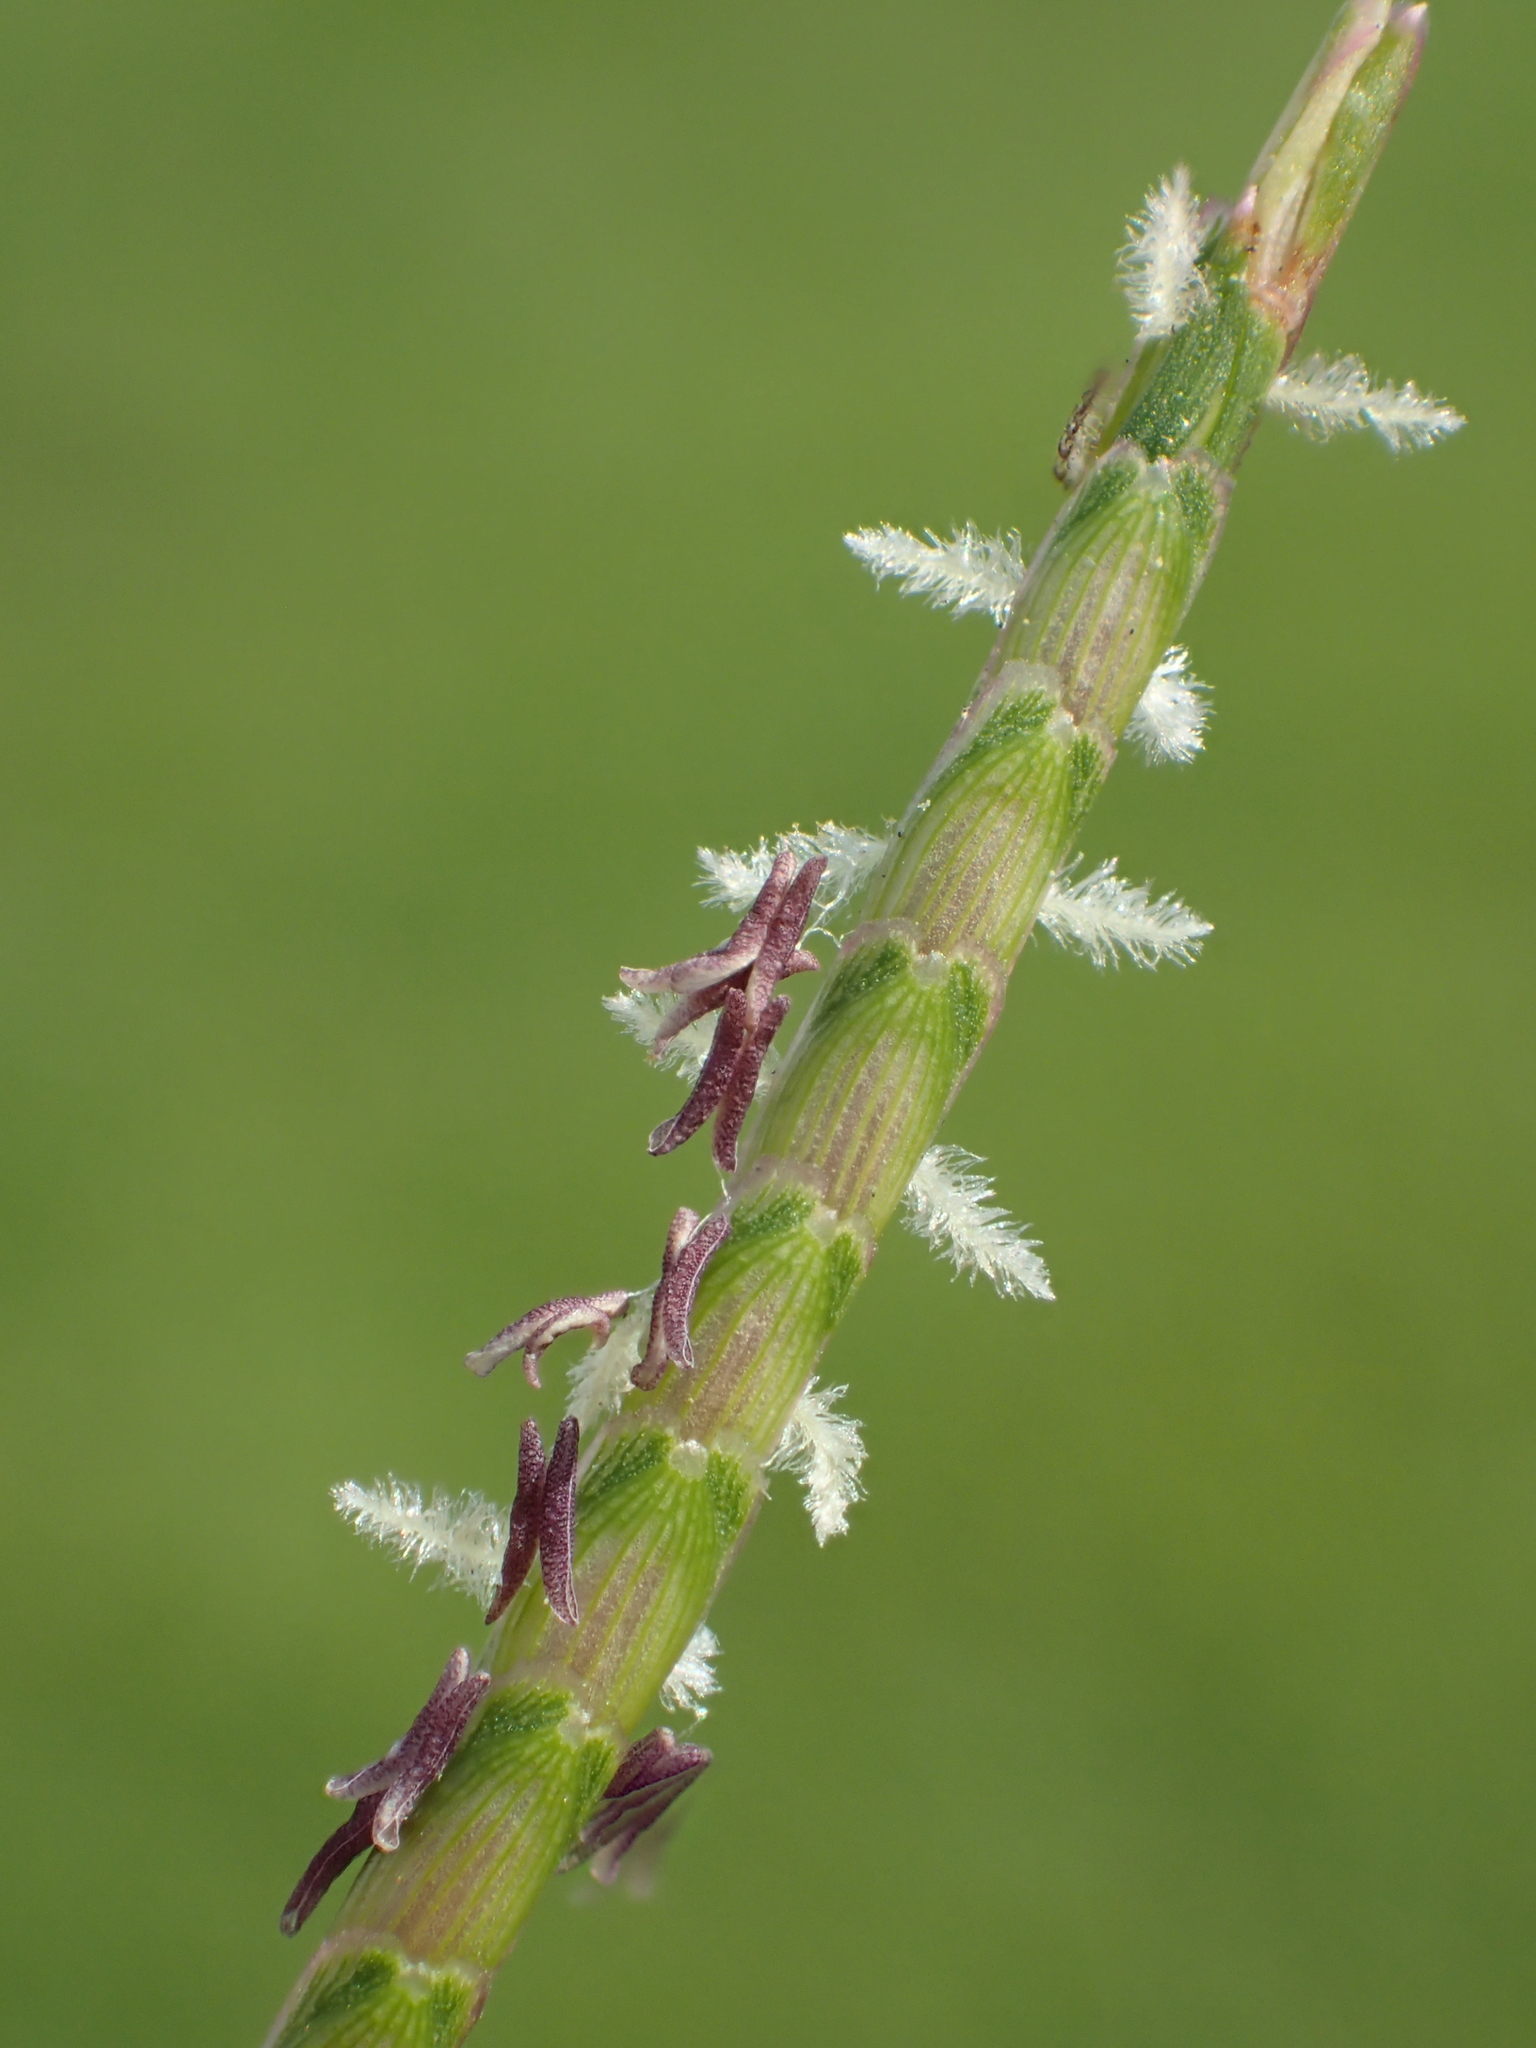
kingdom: Plantae
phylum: Tracheophyta
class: Liliopsida
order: Poales
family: Poaceae
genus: Eremochloa
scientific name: Eremochloa ophiuroides
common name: Centipede grass
